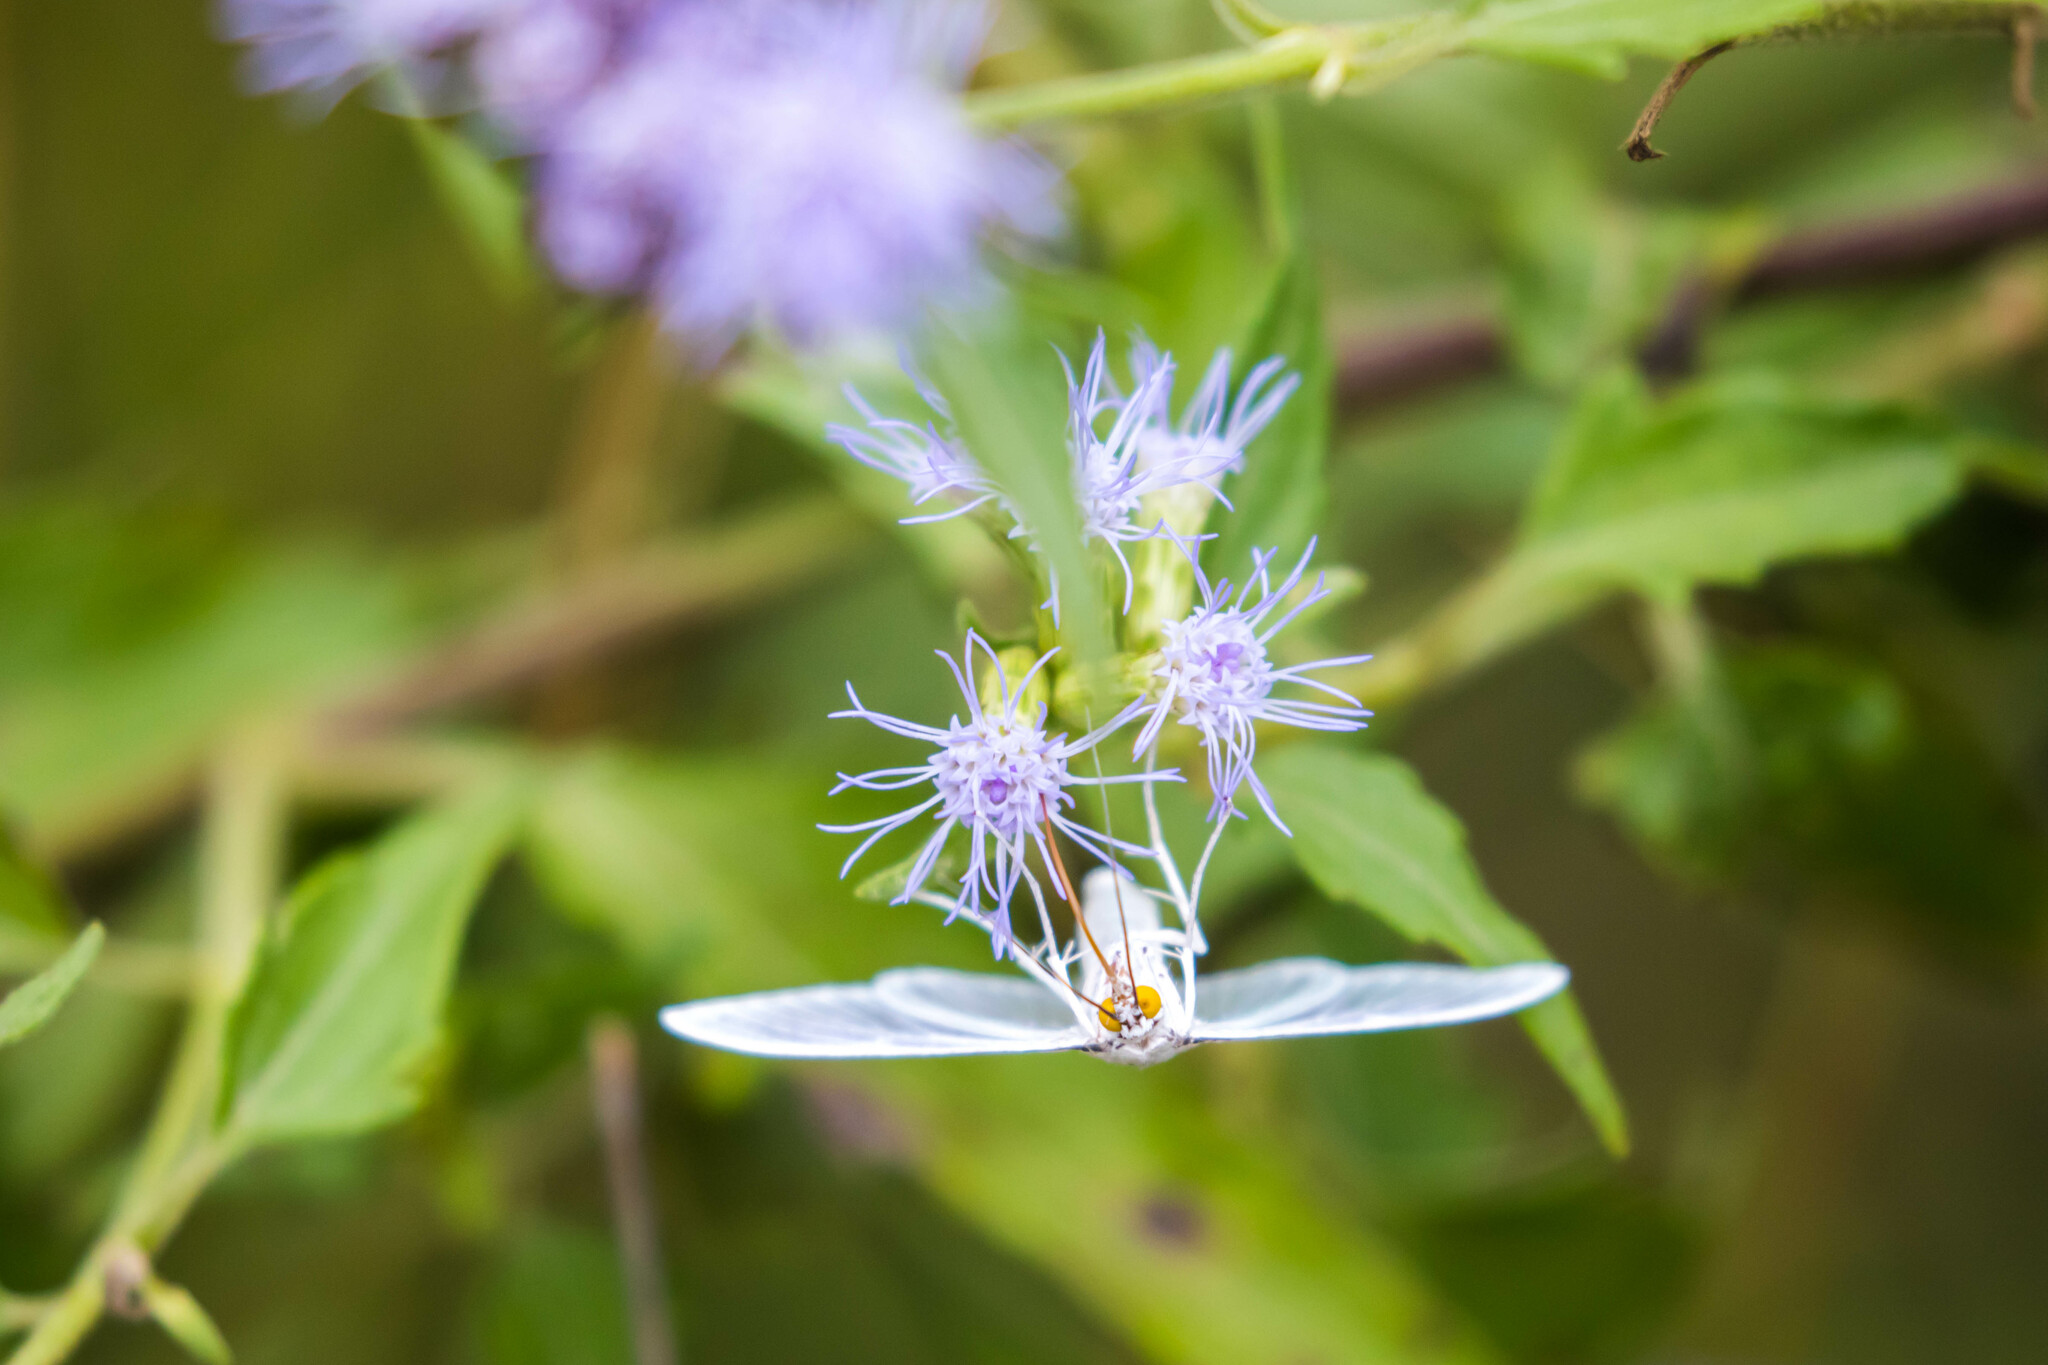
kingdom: Animalia
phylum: Arthropoda
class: Insecta
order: Lepidoptera
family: Crambidae
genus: Palpita
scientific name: Palpita flegia
